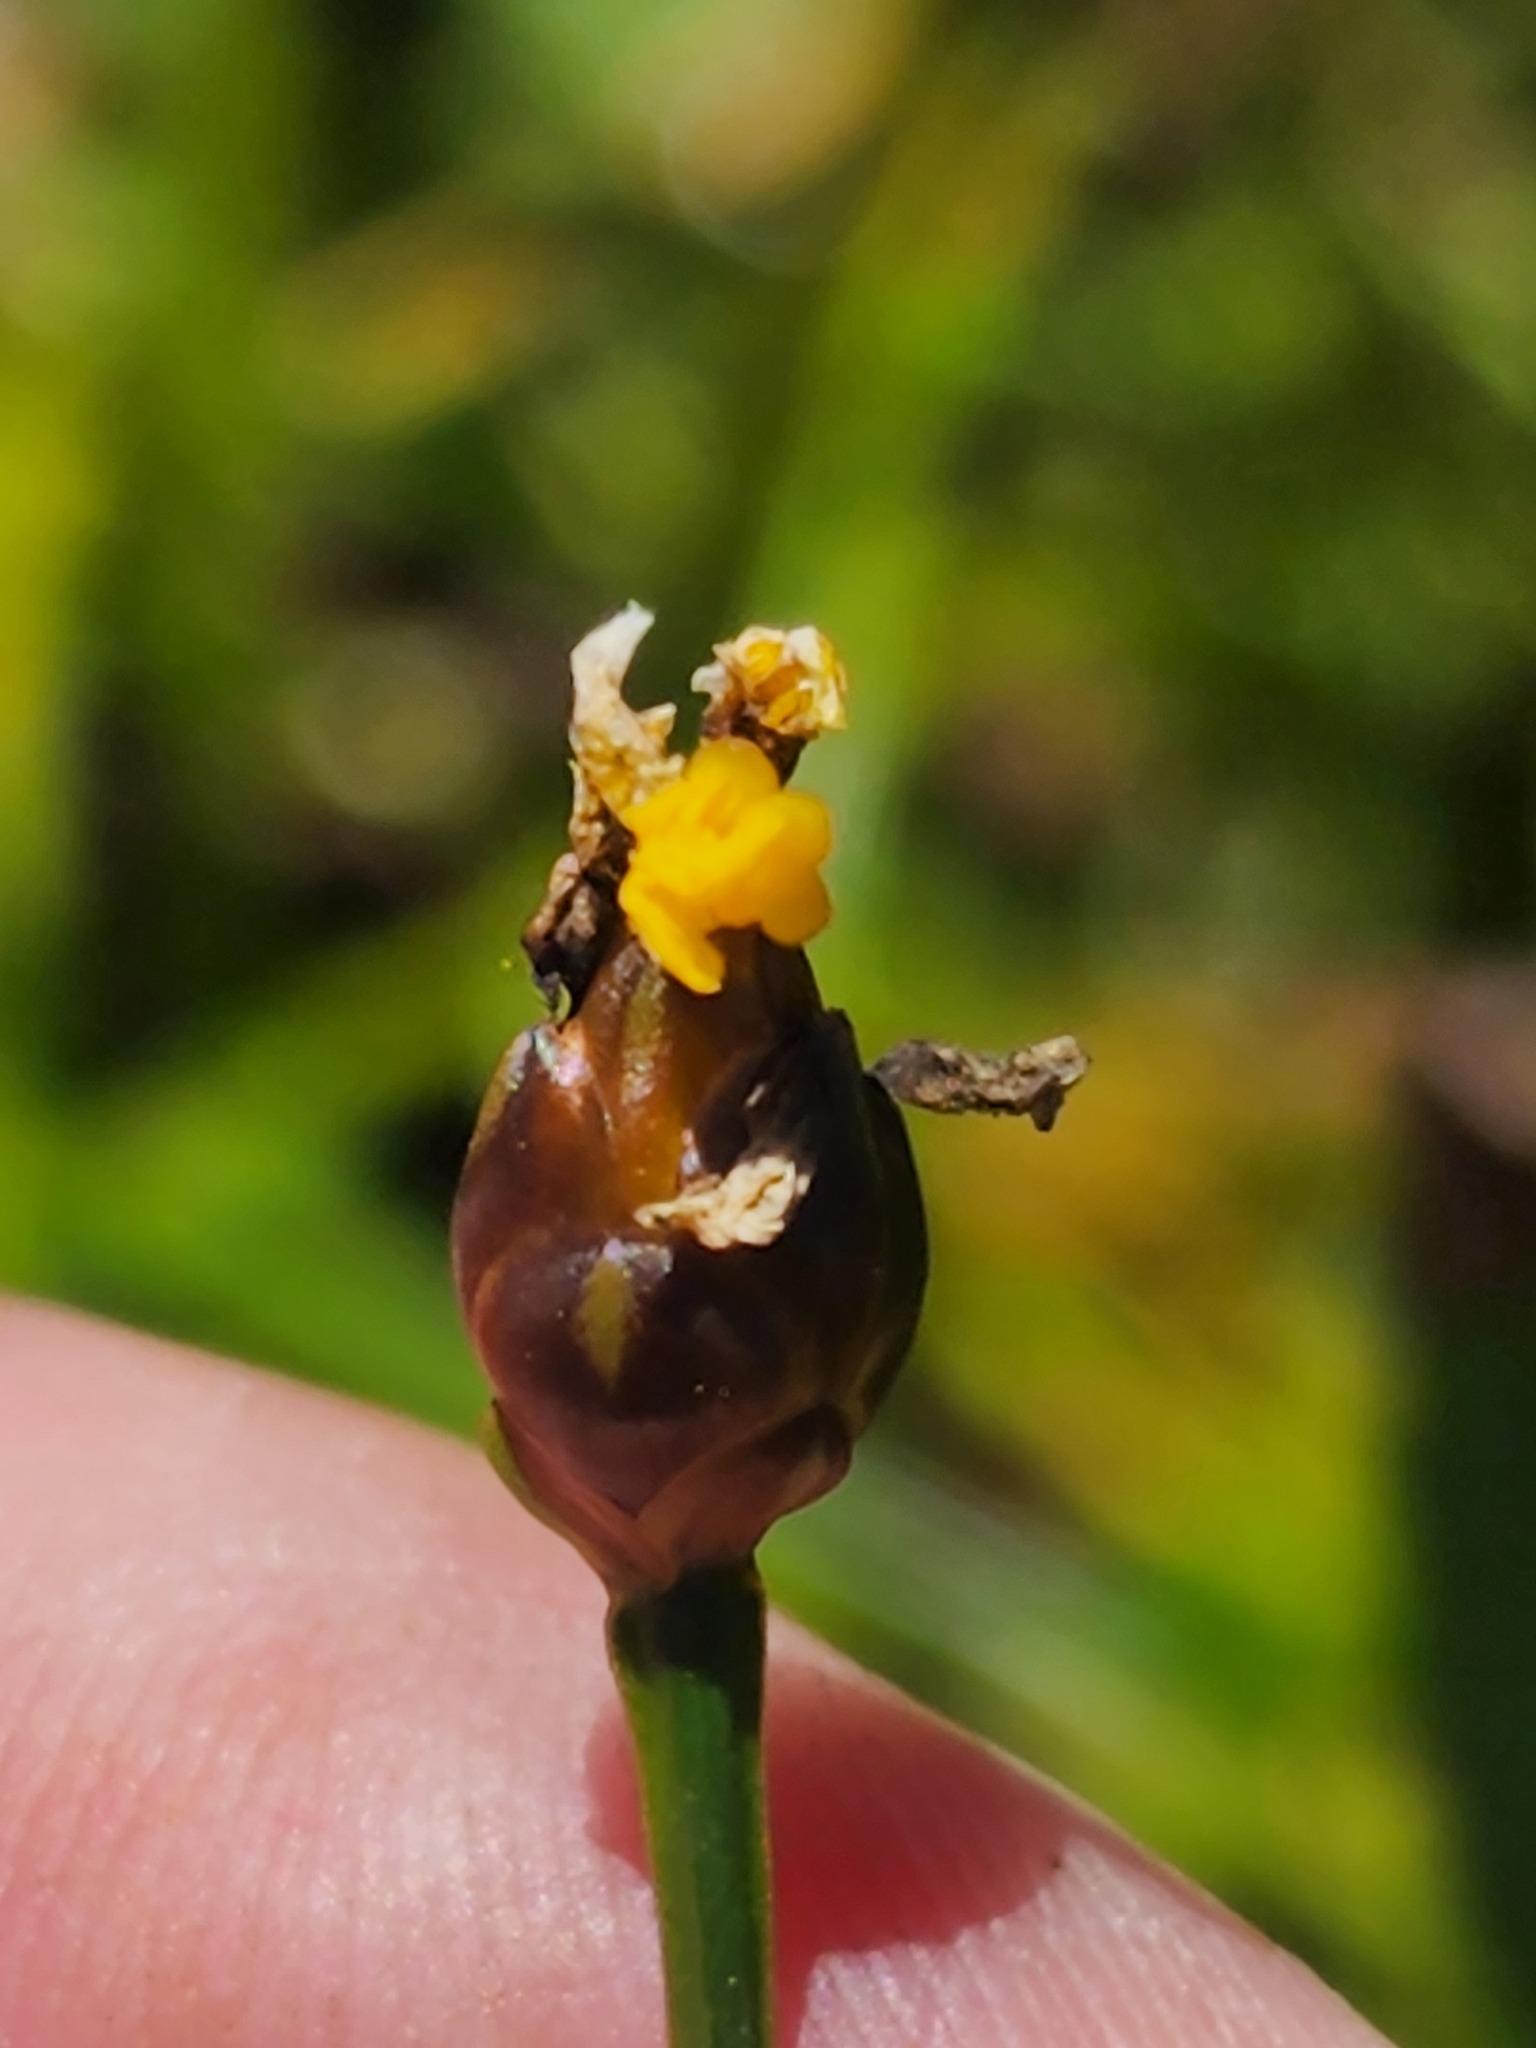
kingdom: Plantae
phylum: Tracheophyta
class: Liliopsida
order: Poales
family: Xyridaceae
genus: Xyris
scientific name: Xyris montana
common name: Northern yellow-eyed-grass
